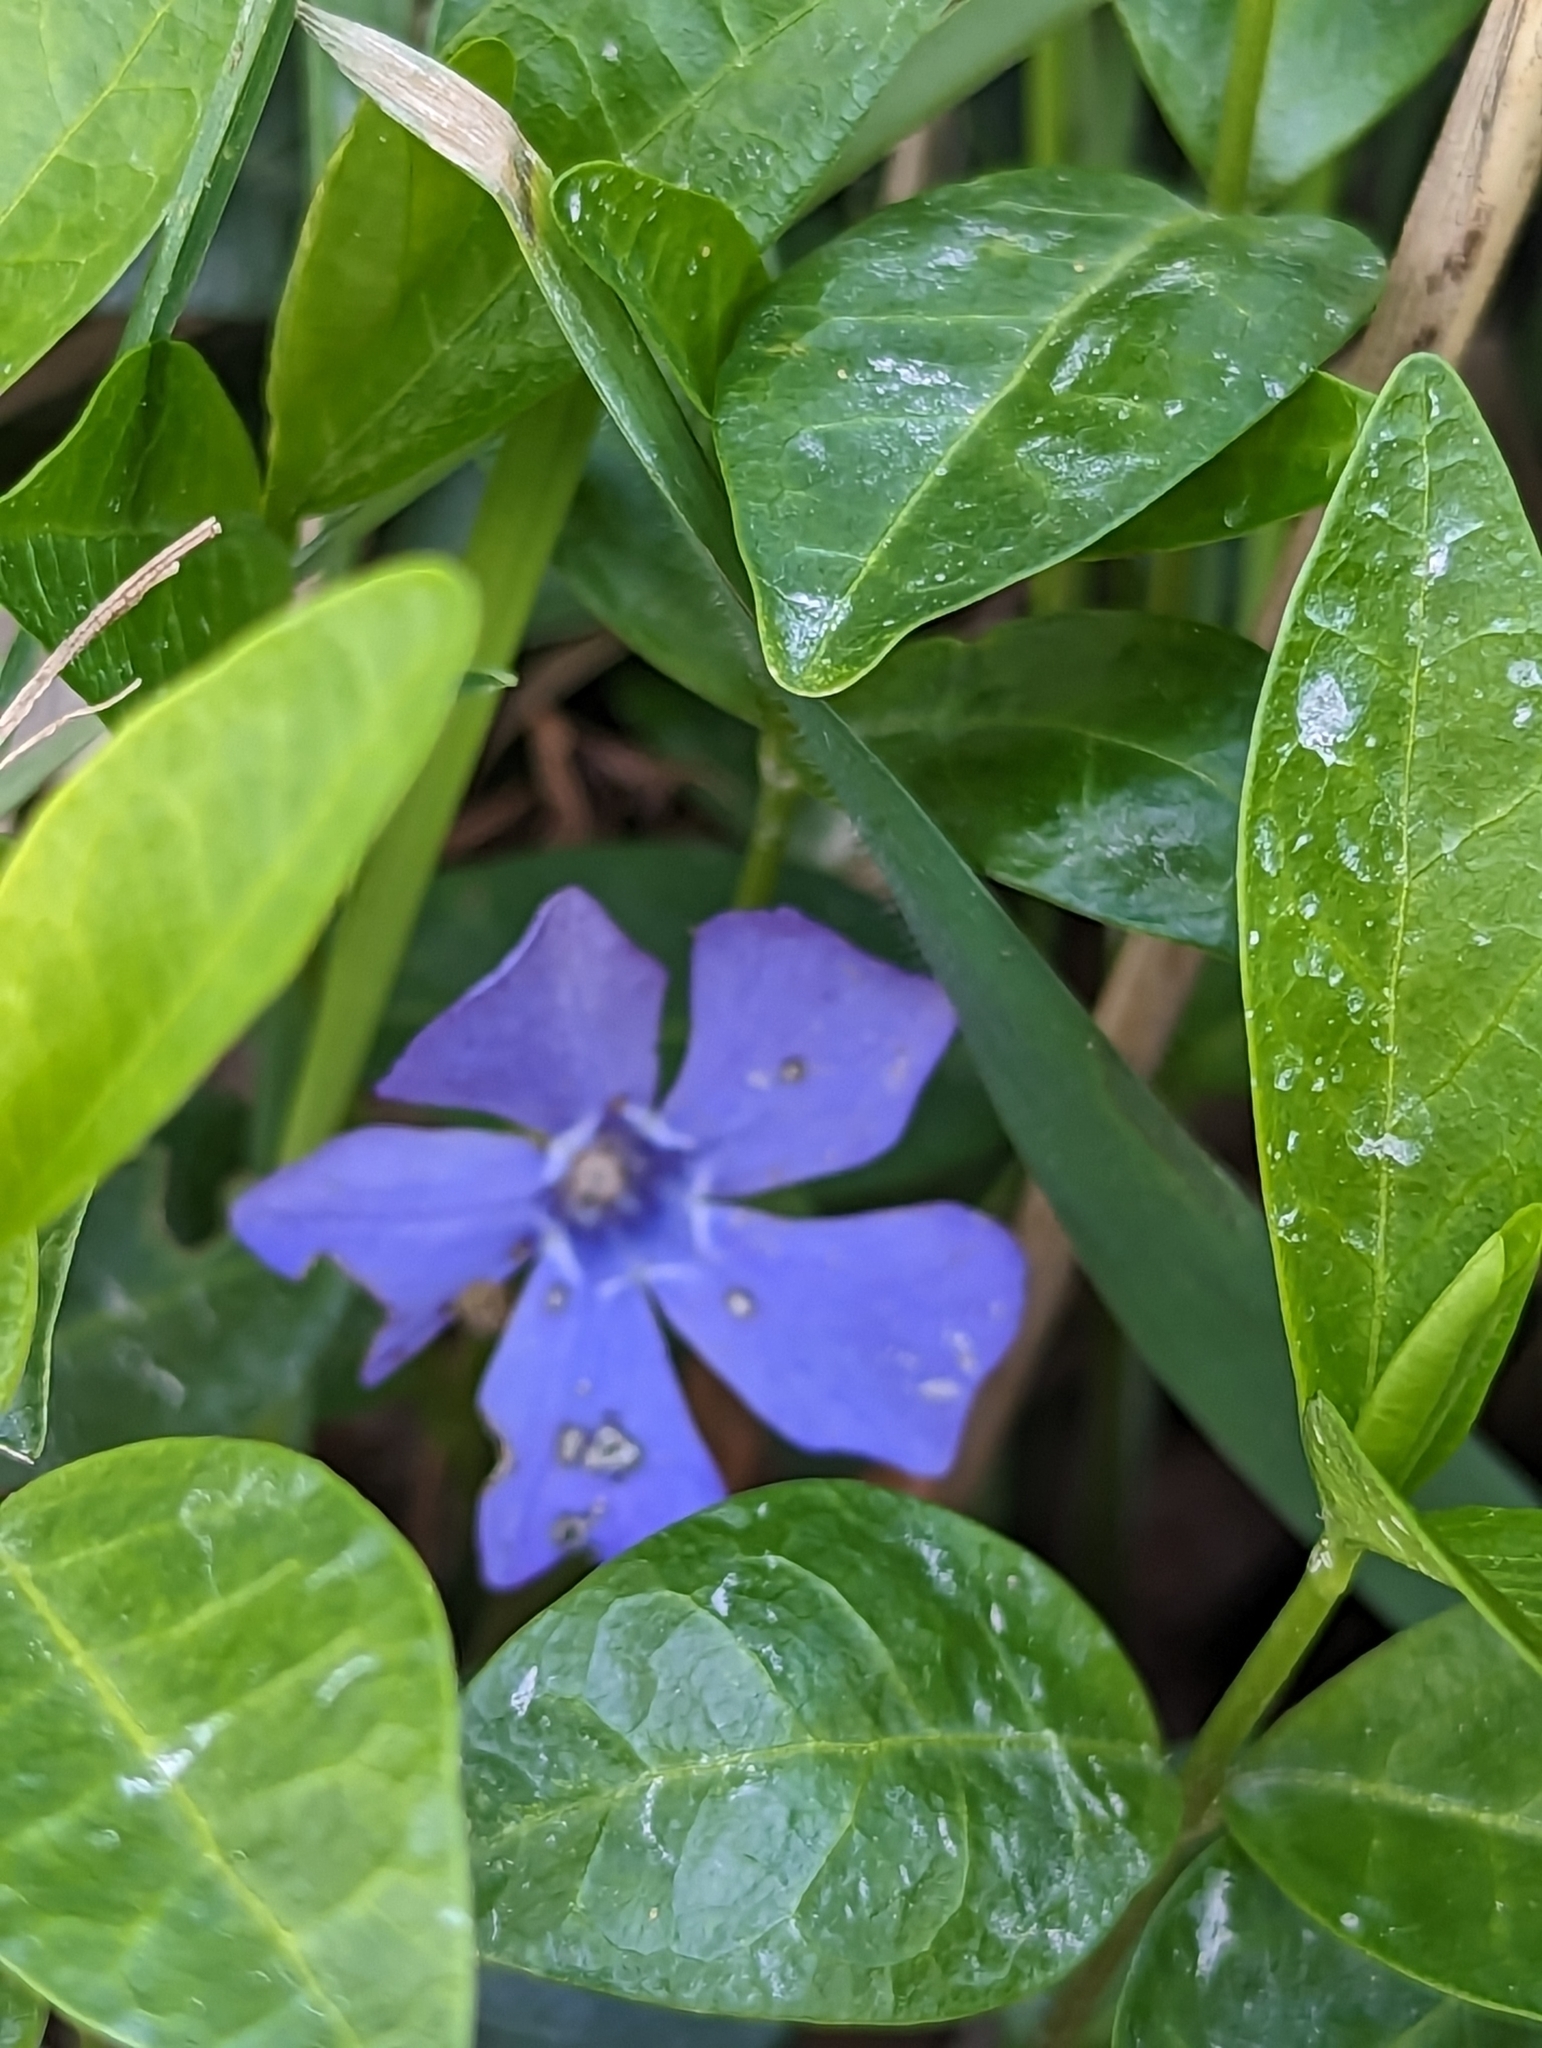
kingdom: Plantae
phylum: Tracheophyta
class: Magnoliopsida
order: Gentianales
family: Apocynaceae
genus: Vinca
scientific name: Vinca minor
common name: Lesser periwinkle
